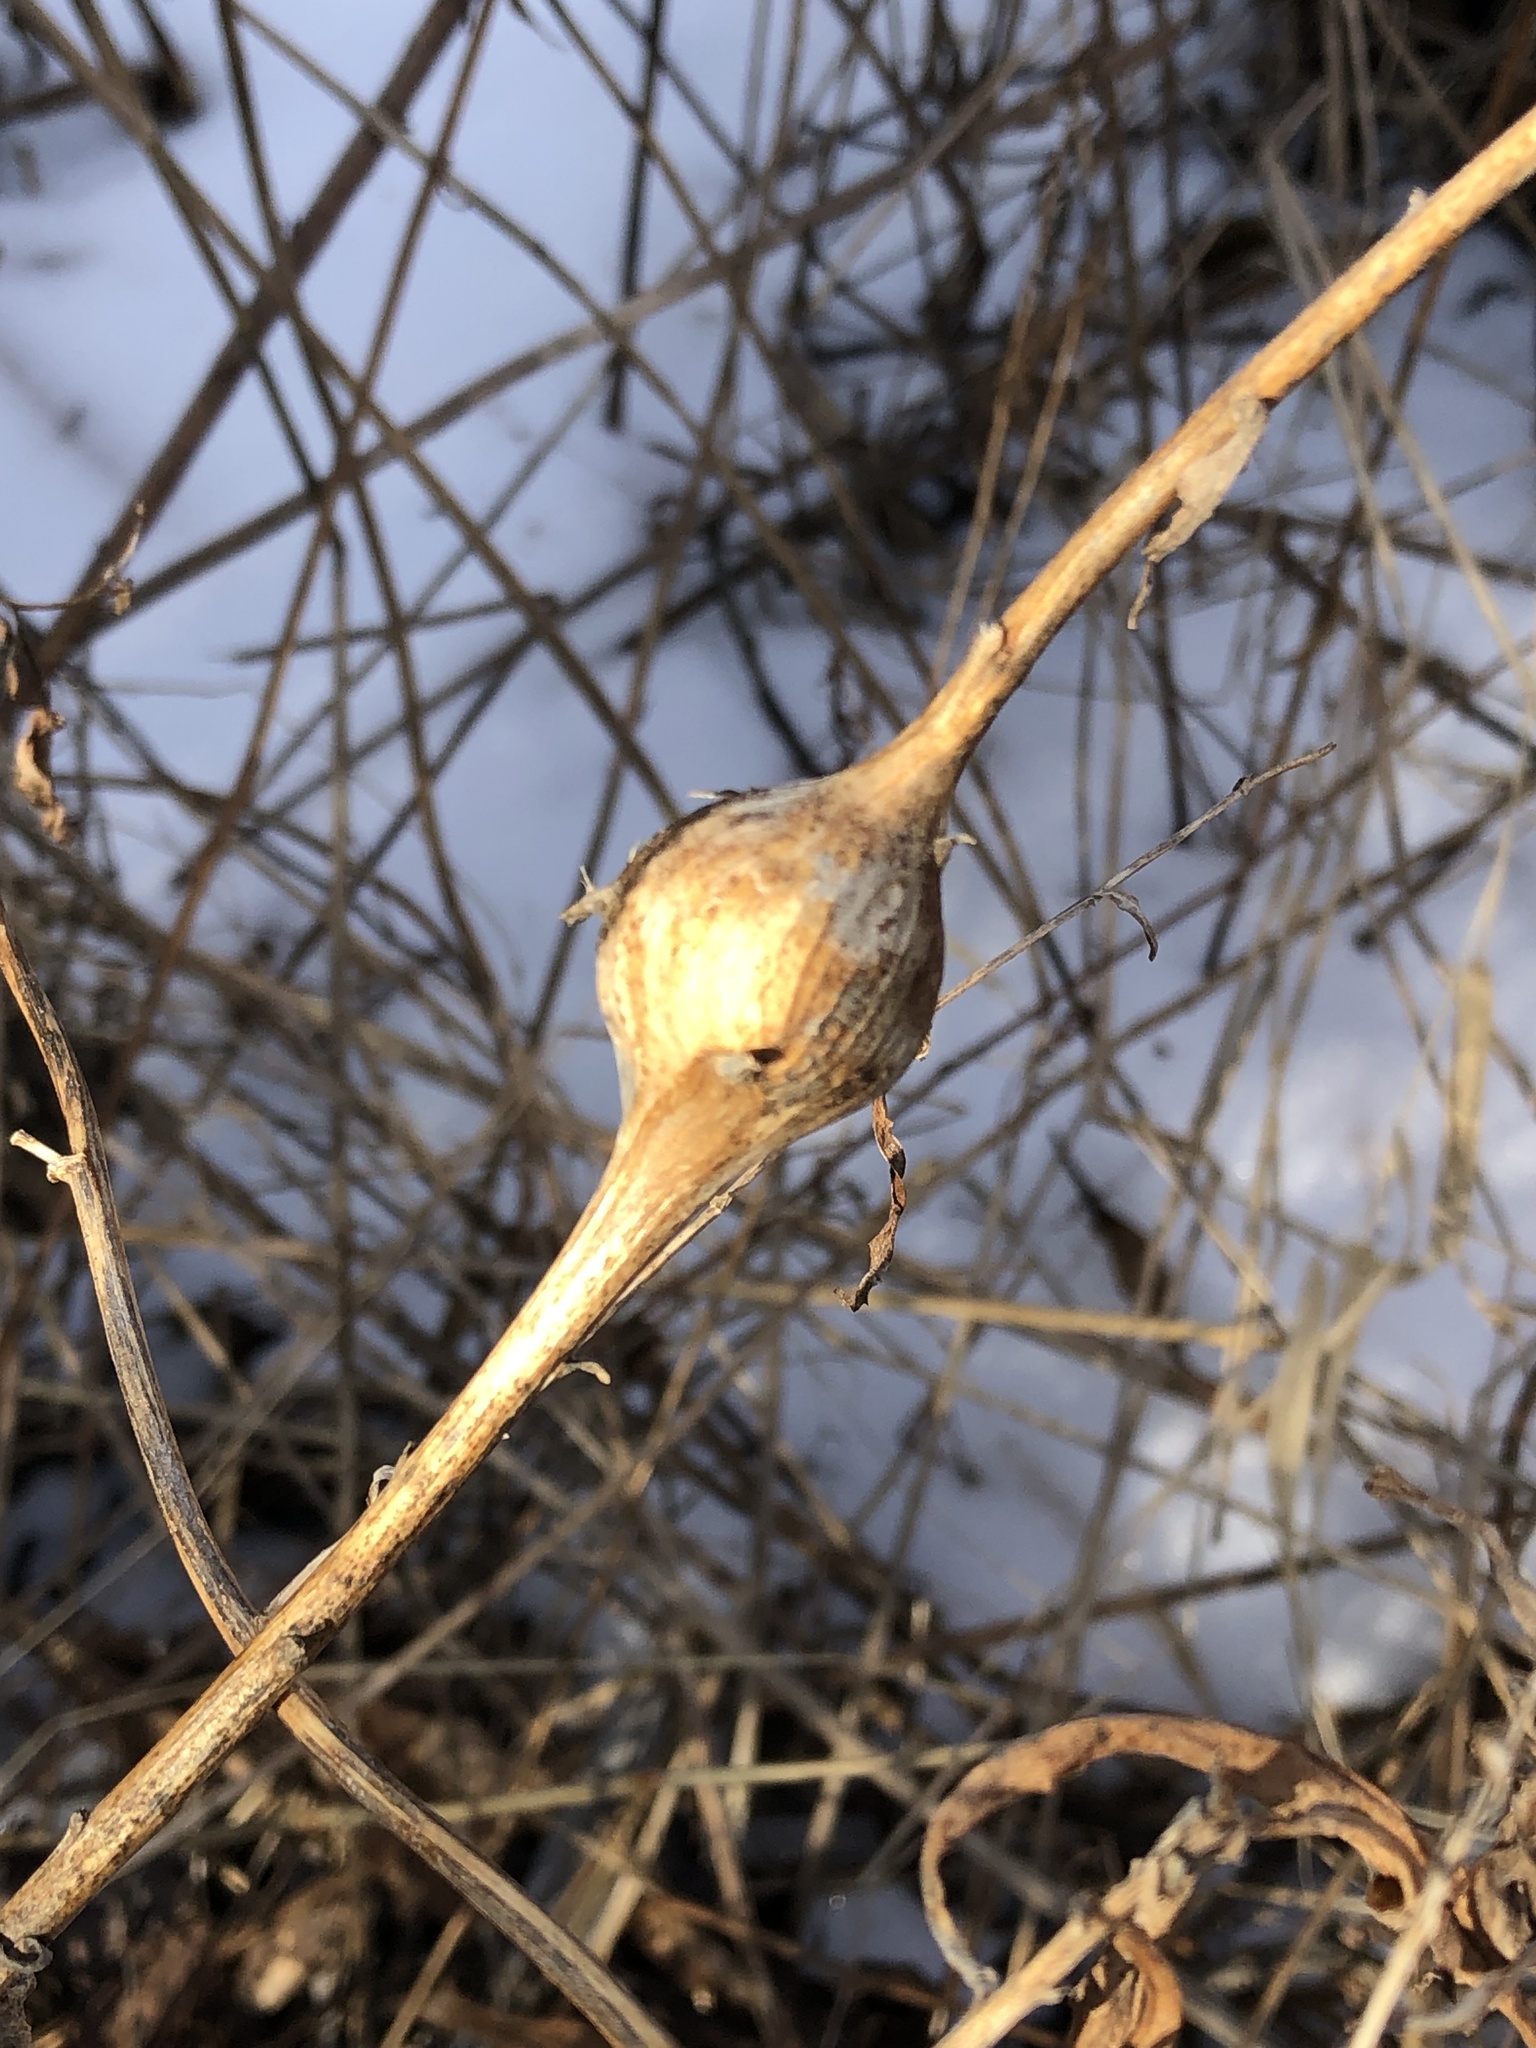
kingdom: Animalia
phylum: Arthropoda
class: Insecta
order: Diptera
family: Tephritidae
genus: Eurosta
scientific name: Eurosta solidaginis
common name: Goldenrod gall fly
